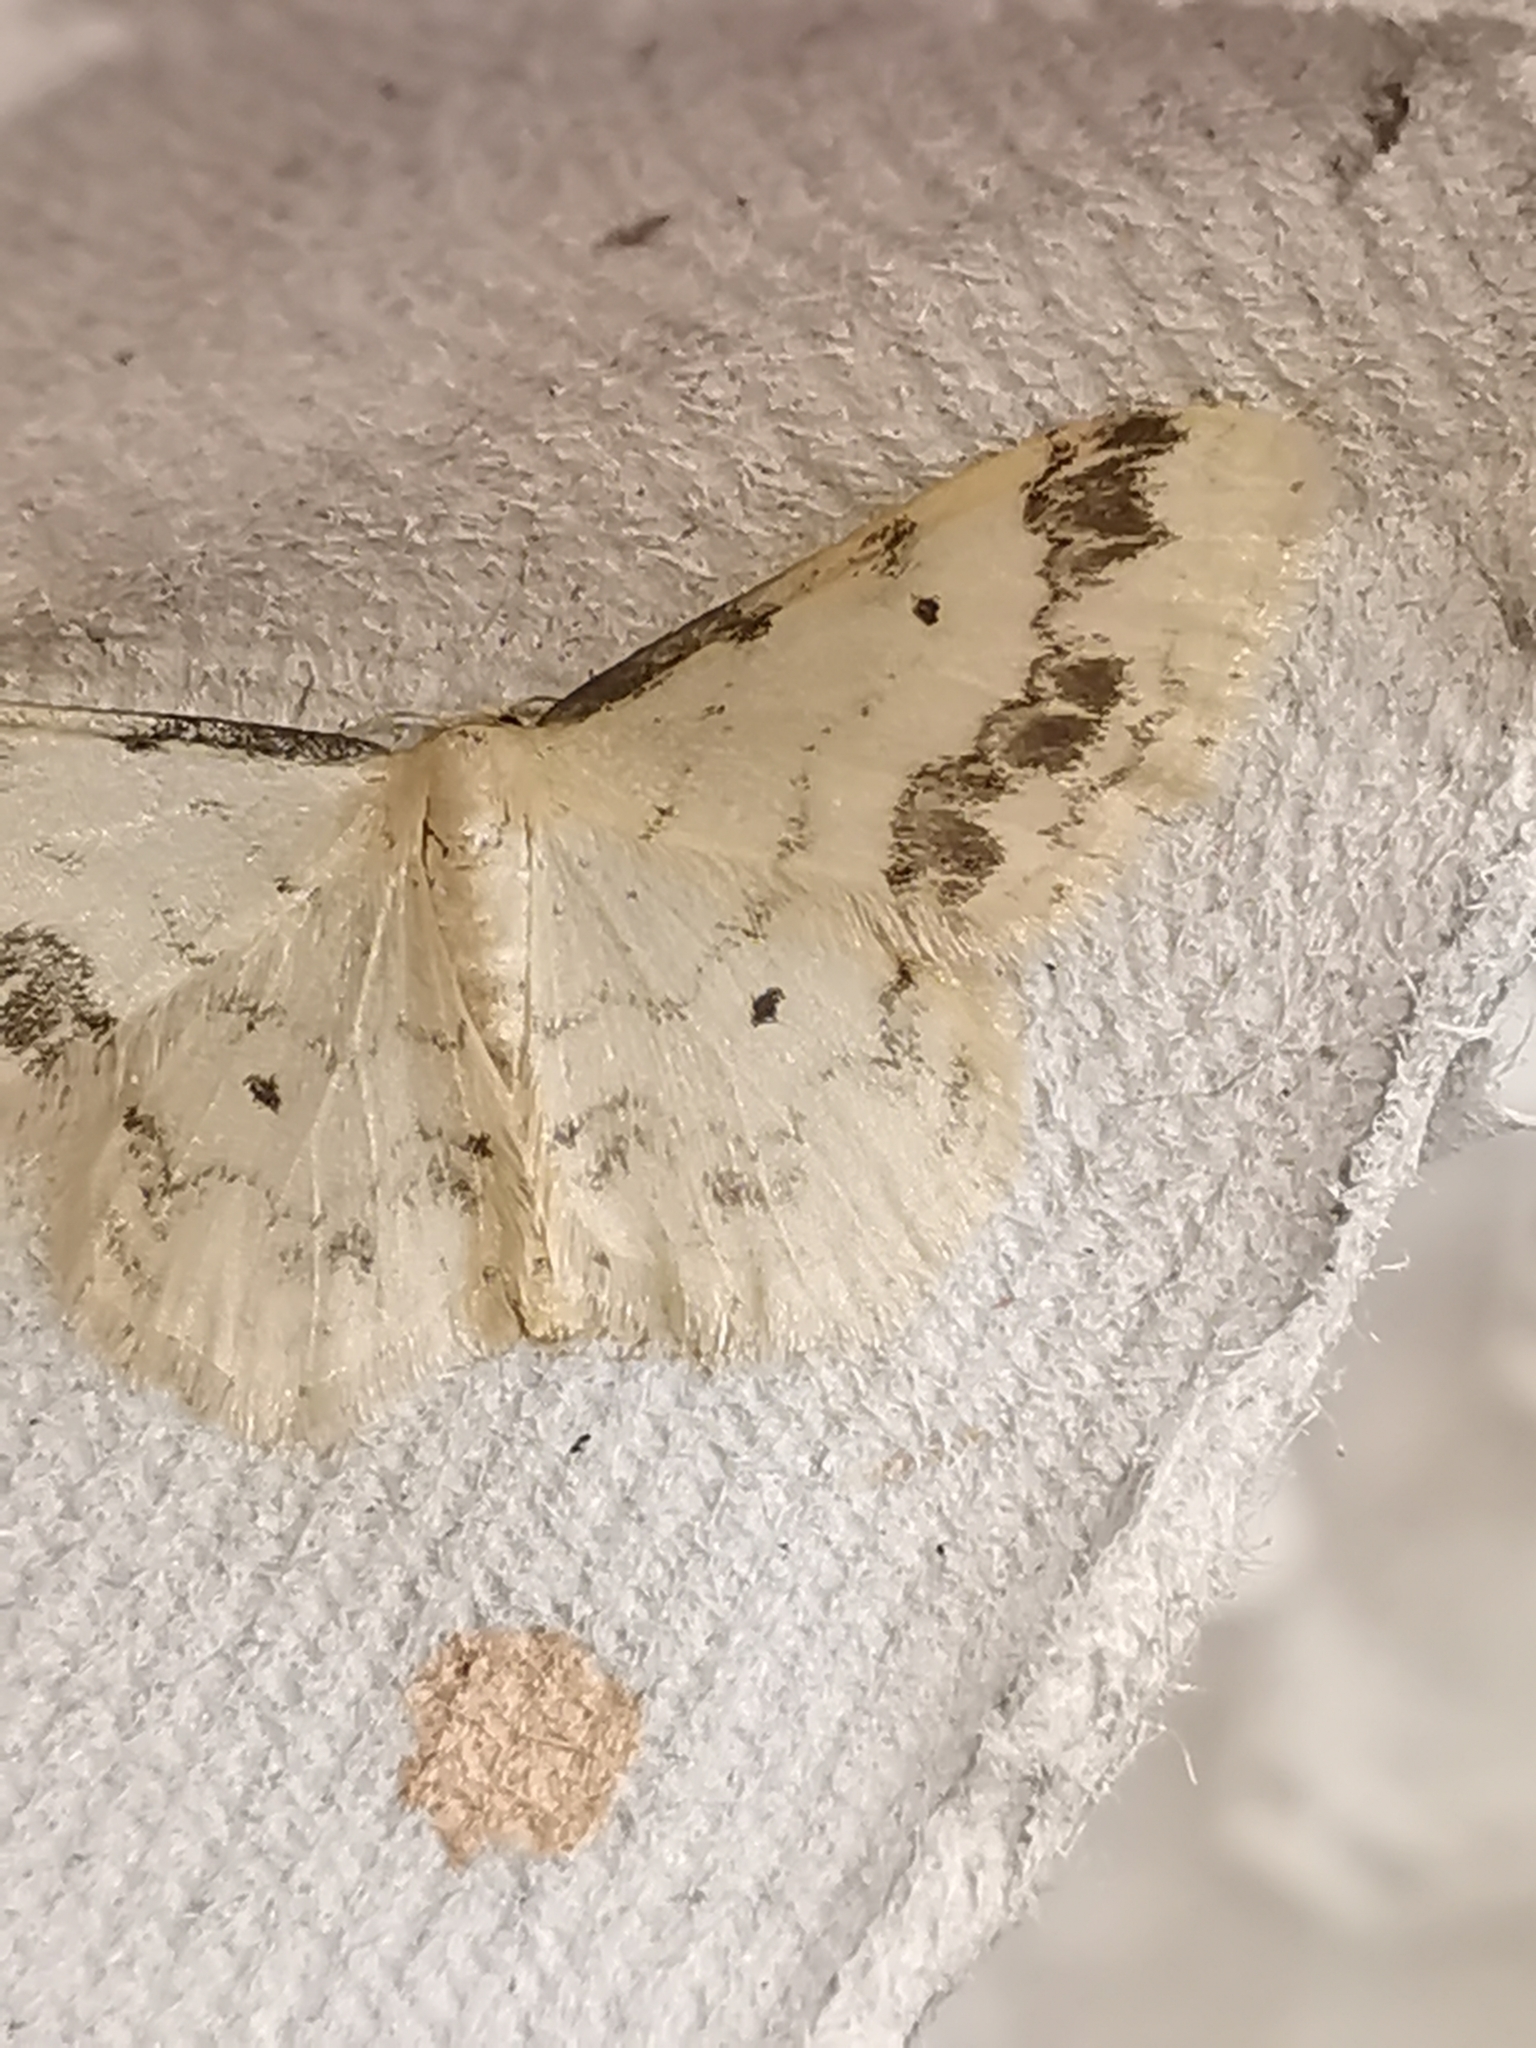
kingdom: Animalia
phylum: Arthropoda
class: Insecta
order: Lepidoptera
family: Geometridae
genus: Idaea
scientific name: Idaea trigeminata
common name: Treble brown spot
